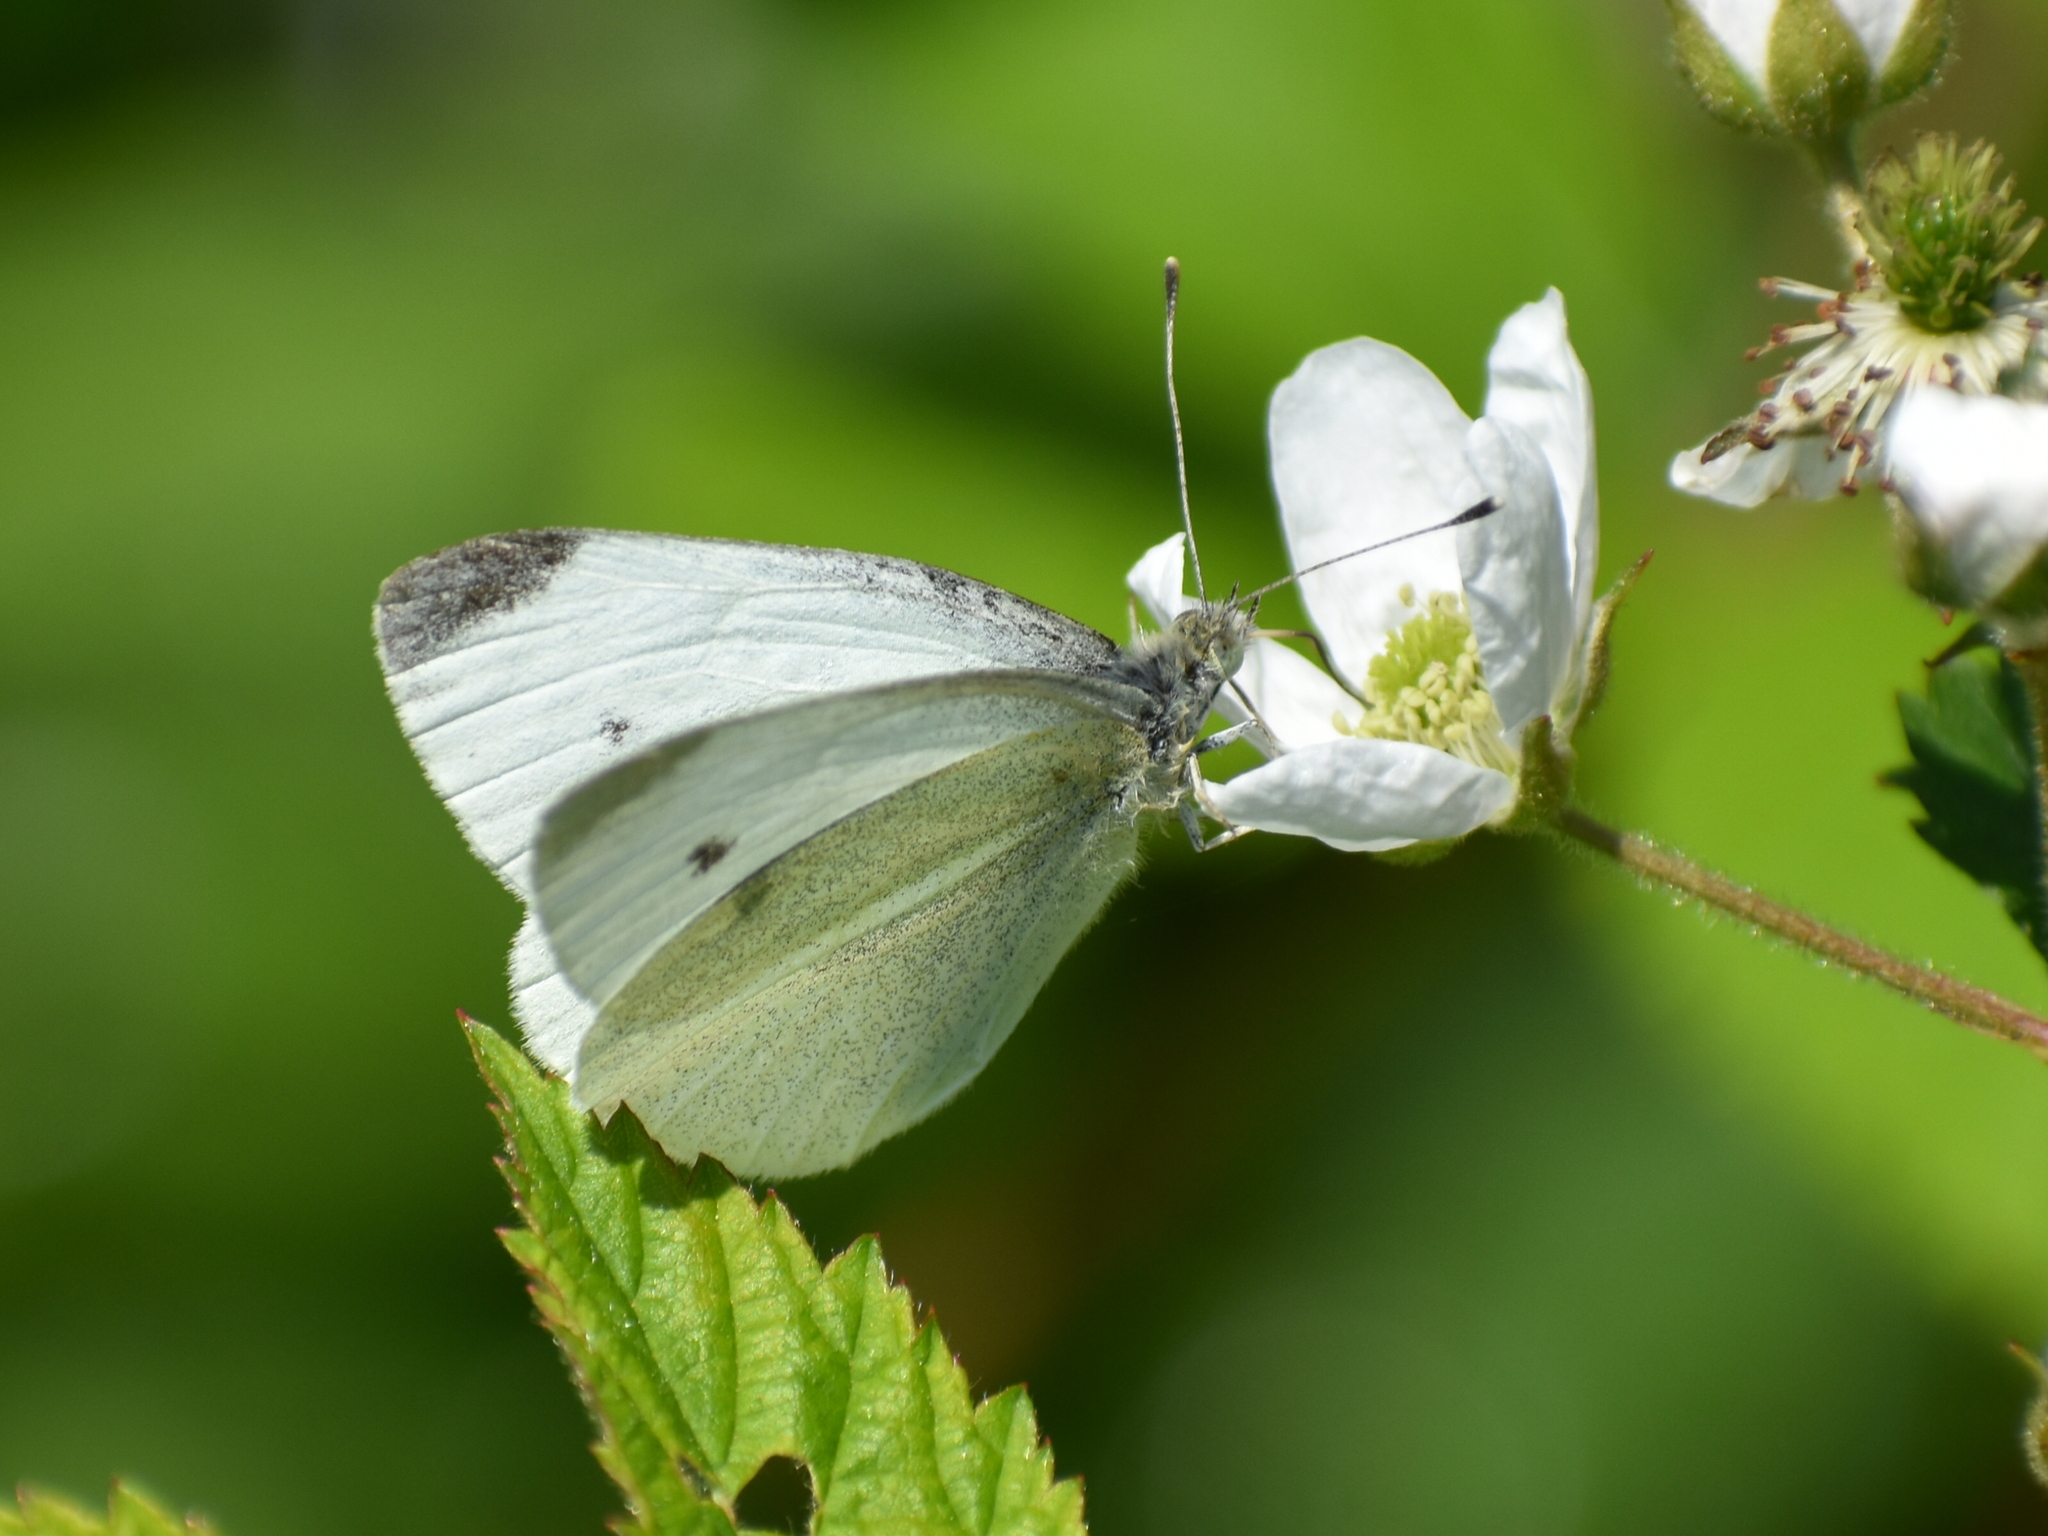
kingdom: Animalia
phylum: Arthropoda
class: Insecta
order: Lepidoptera
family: Pieridae
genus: Pieris
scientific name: Pieris rapae
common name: Small white
